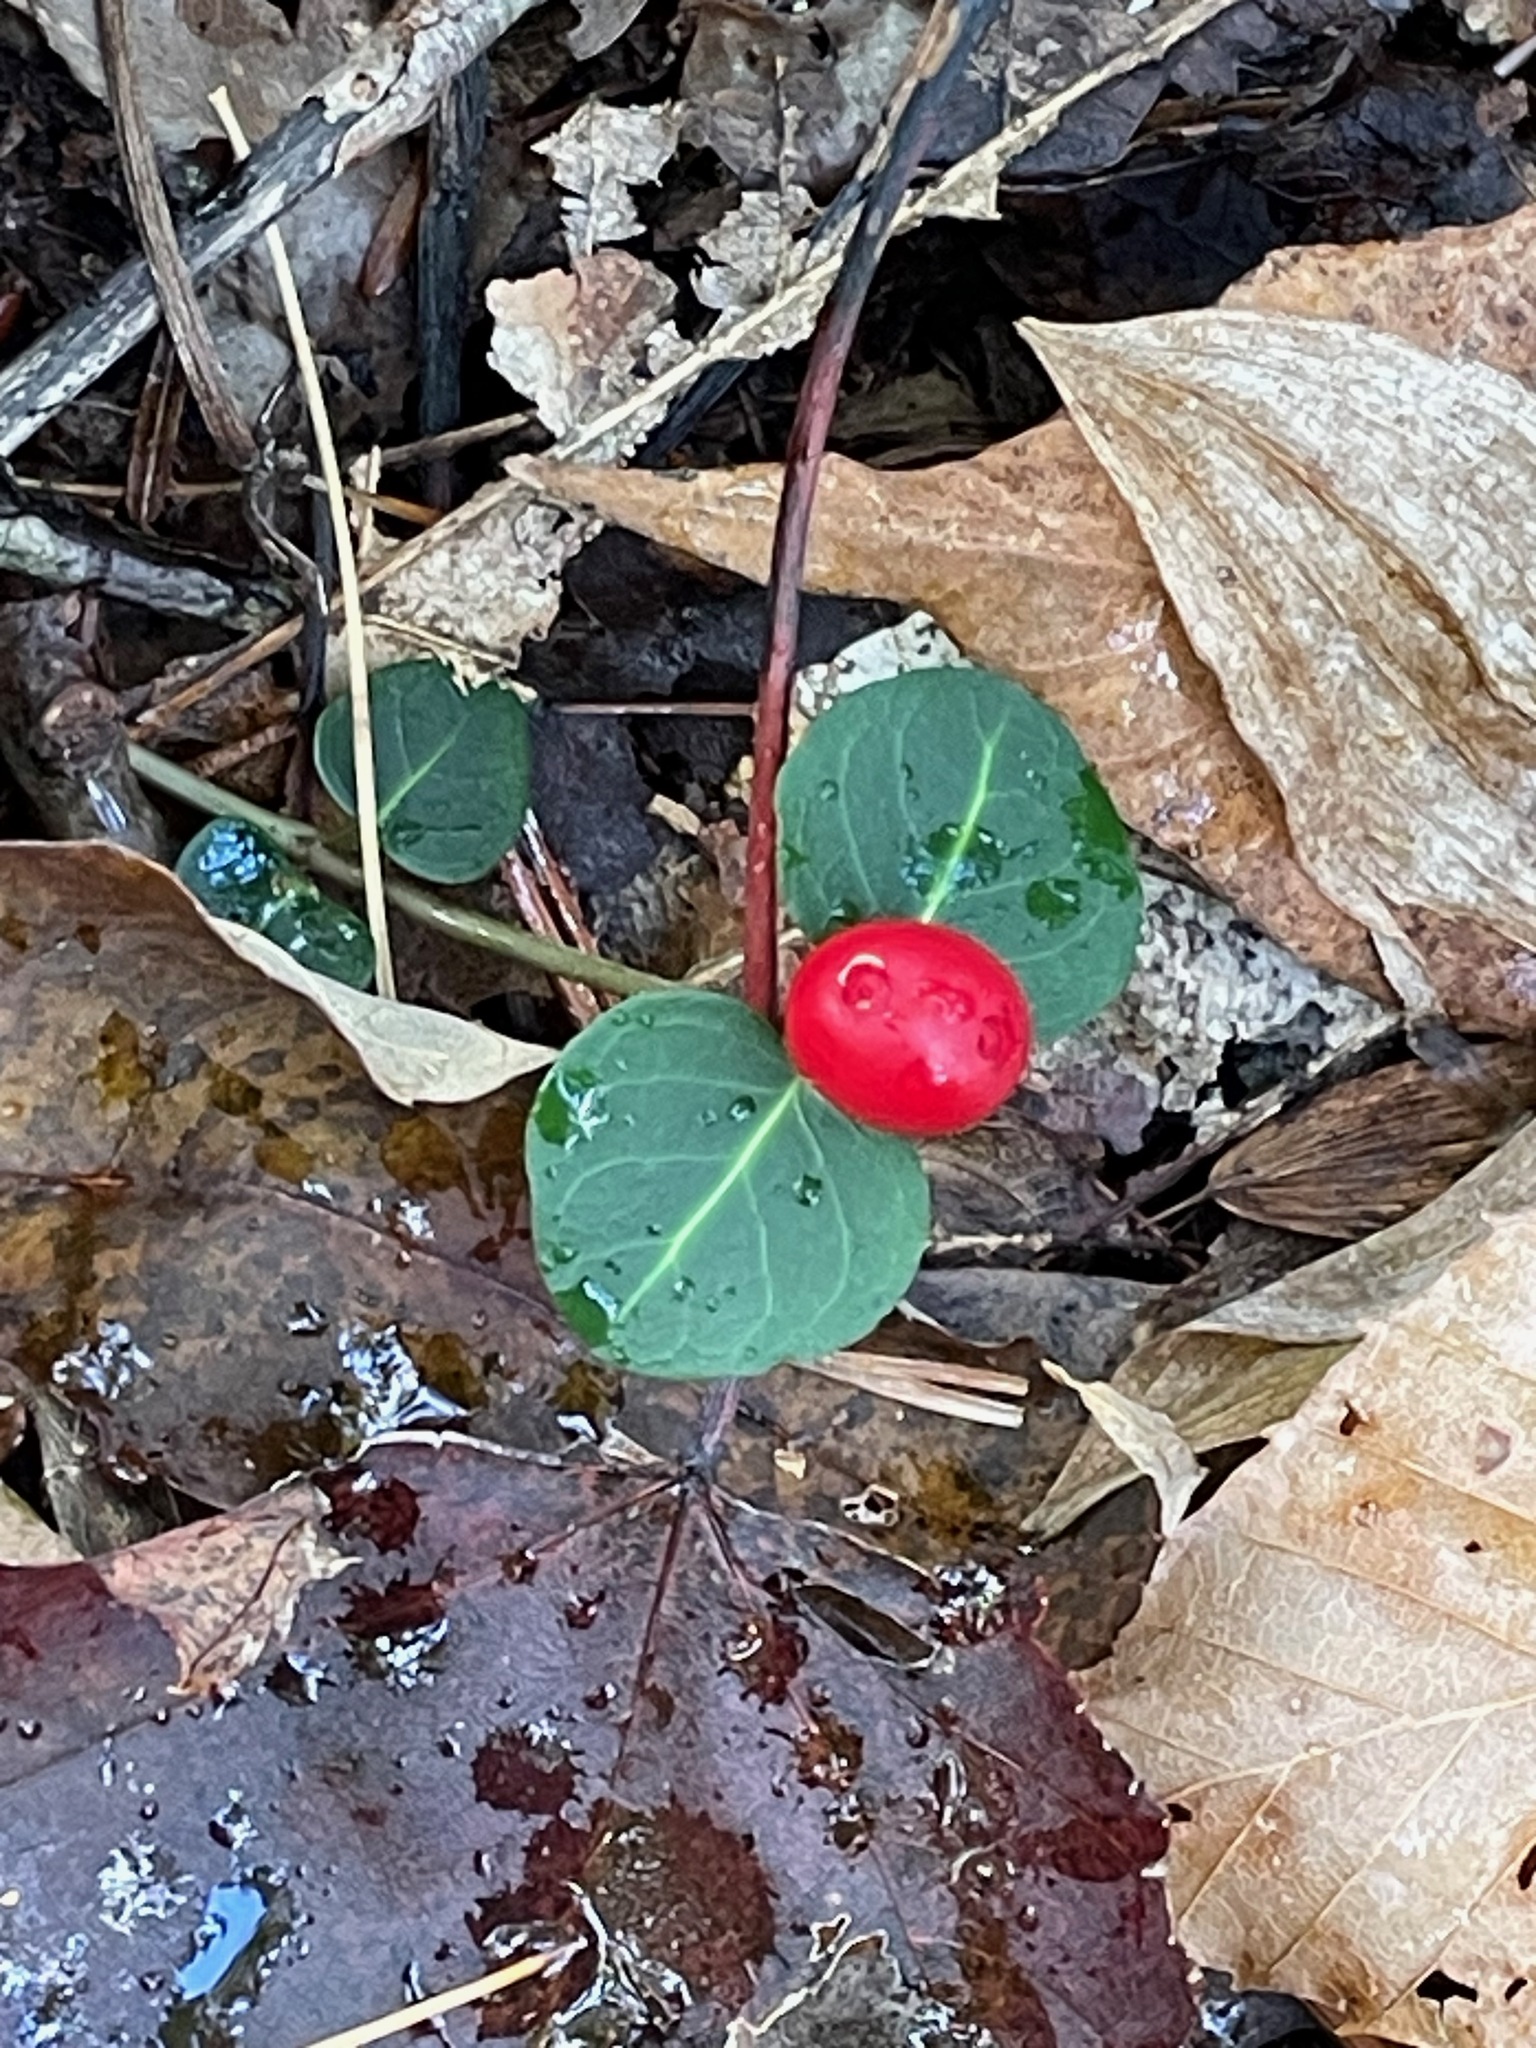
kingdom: Plantae
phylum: Tracheophyta
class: Magnoliopsida
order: Gentianales
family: Rubiaceae
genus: Mitchella
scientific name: Mitchella repens
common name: Partridge-berry
